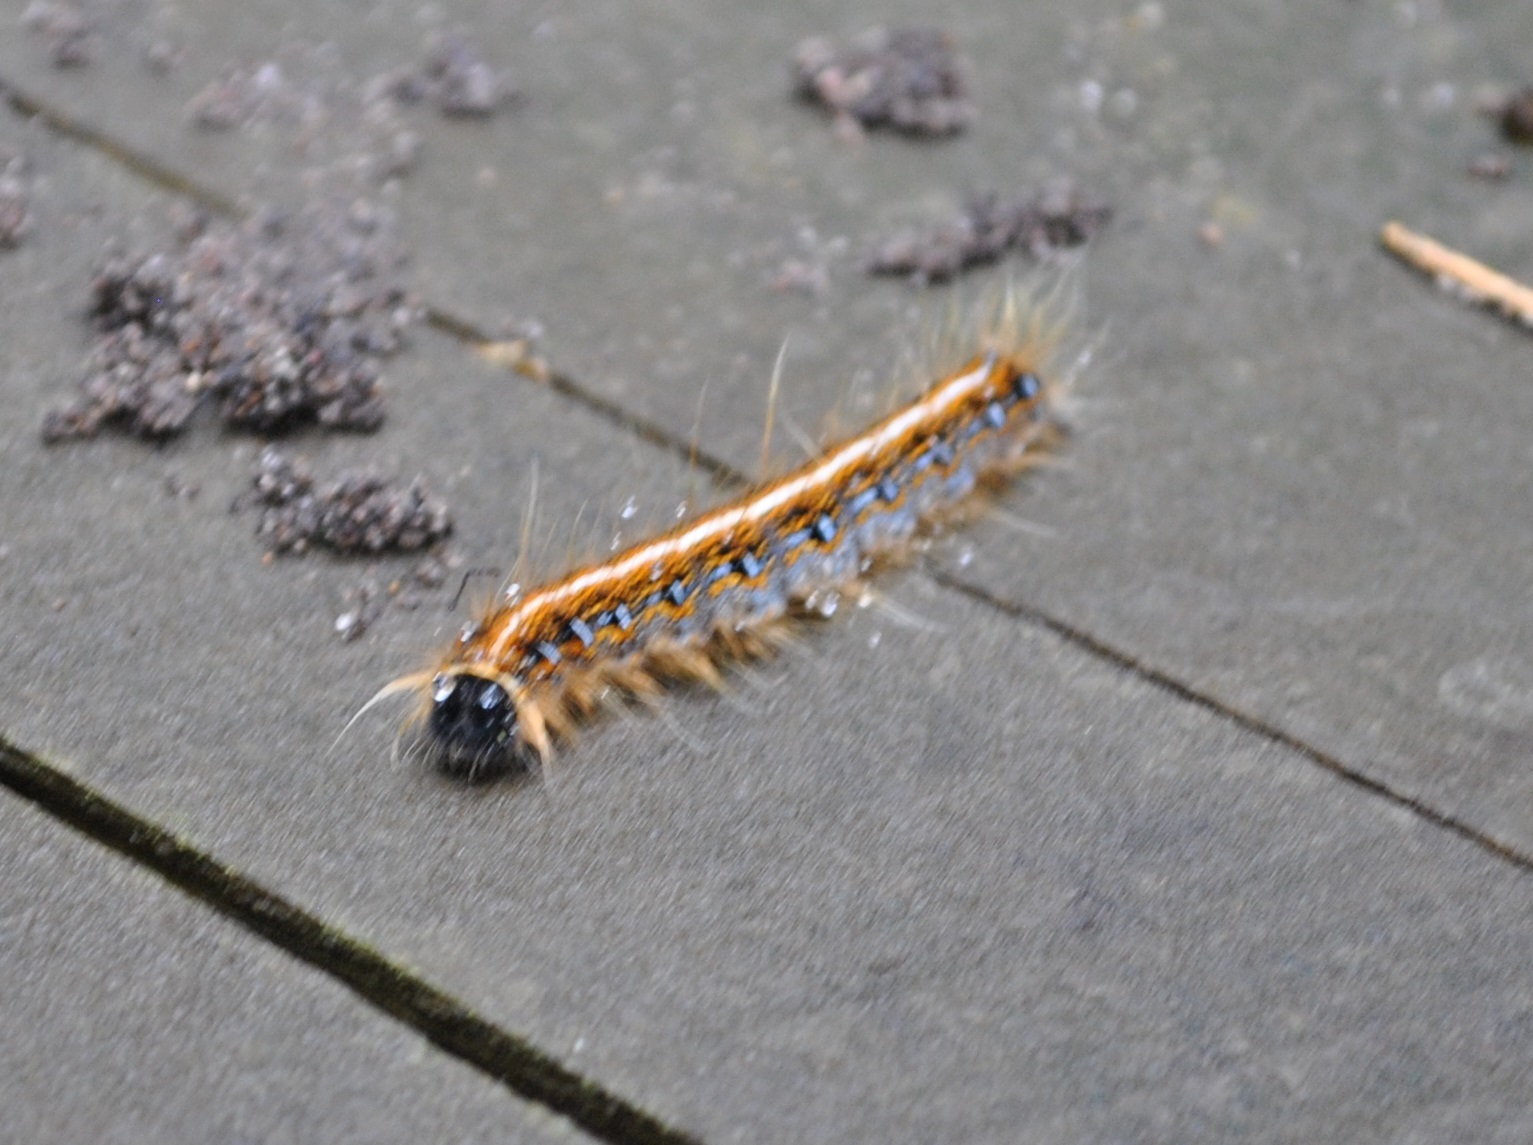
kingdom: Animalia
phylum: Arthropoda
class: Insecta
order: Lepidoptera
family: Lasiocampidae
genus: Malacosoma
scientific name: Malacosoma americana
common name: Eastern tent caterpillar moth
